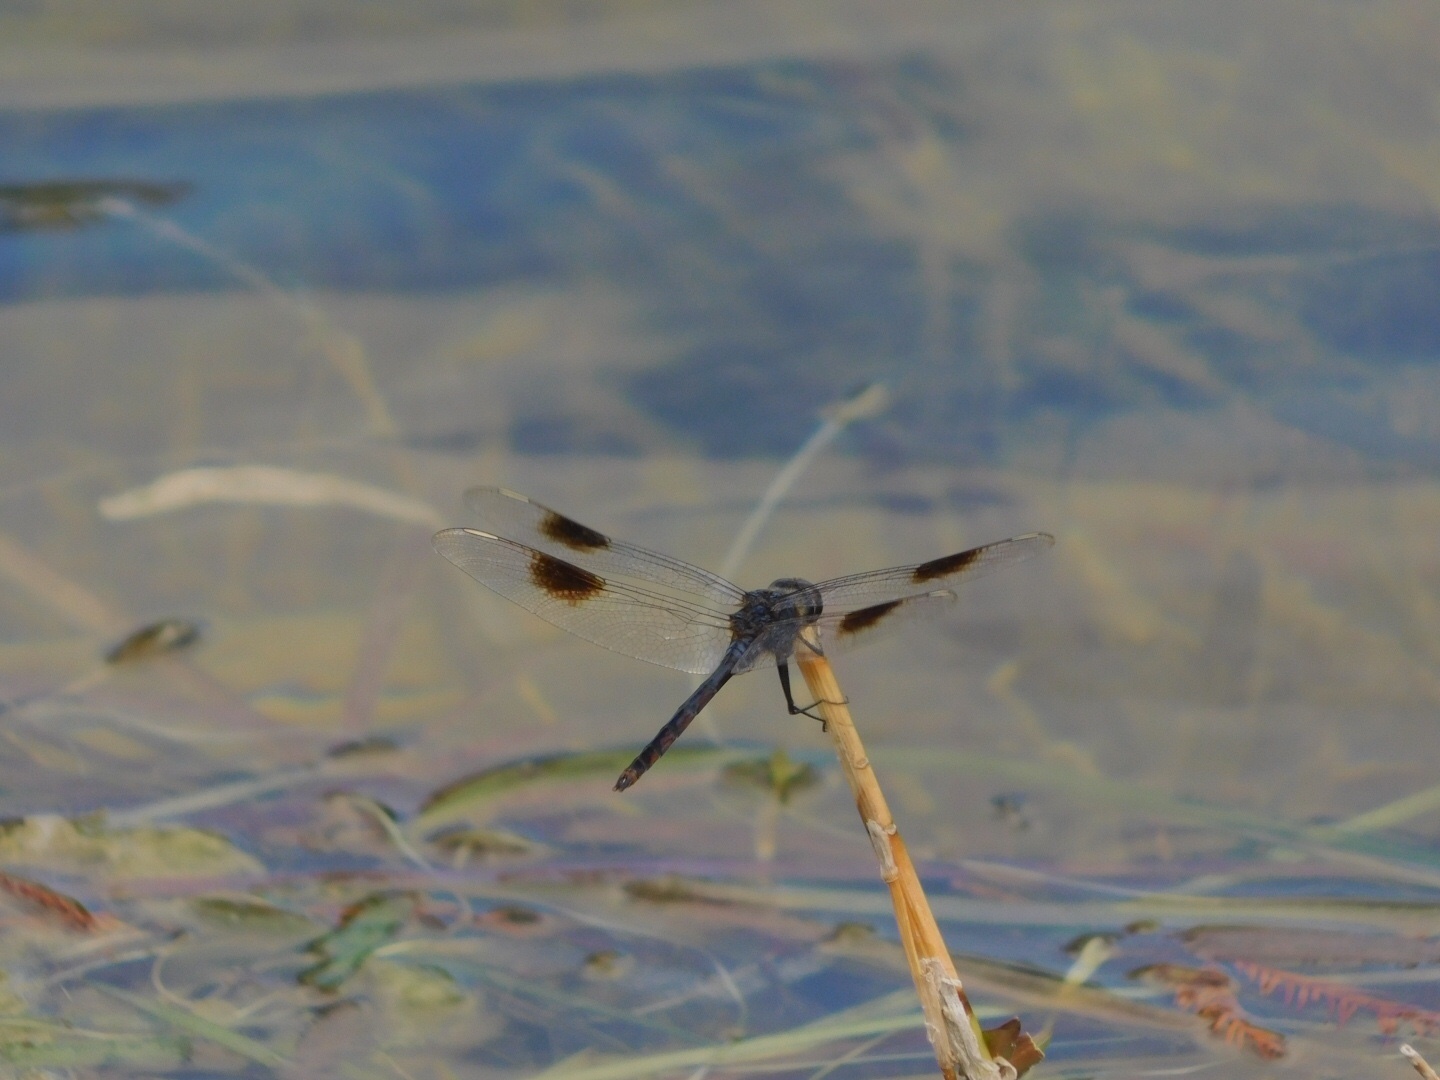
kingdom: Animalia
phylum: Arthropoda
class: Insecta
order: Odonata
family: Libellulidae
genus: Brachymesia
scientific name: Brachymesia gravida
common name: Four-spotted pennant
